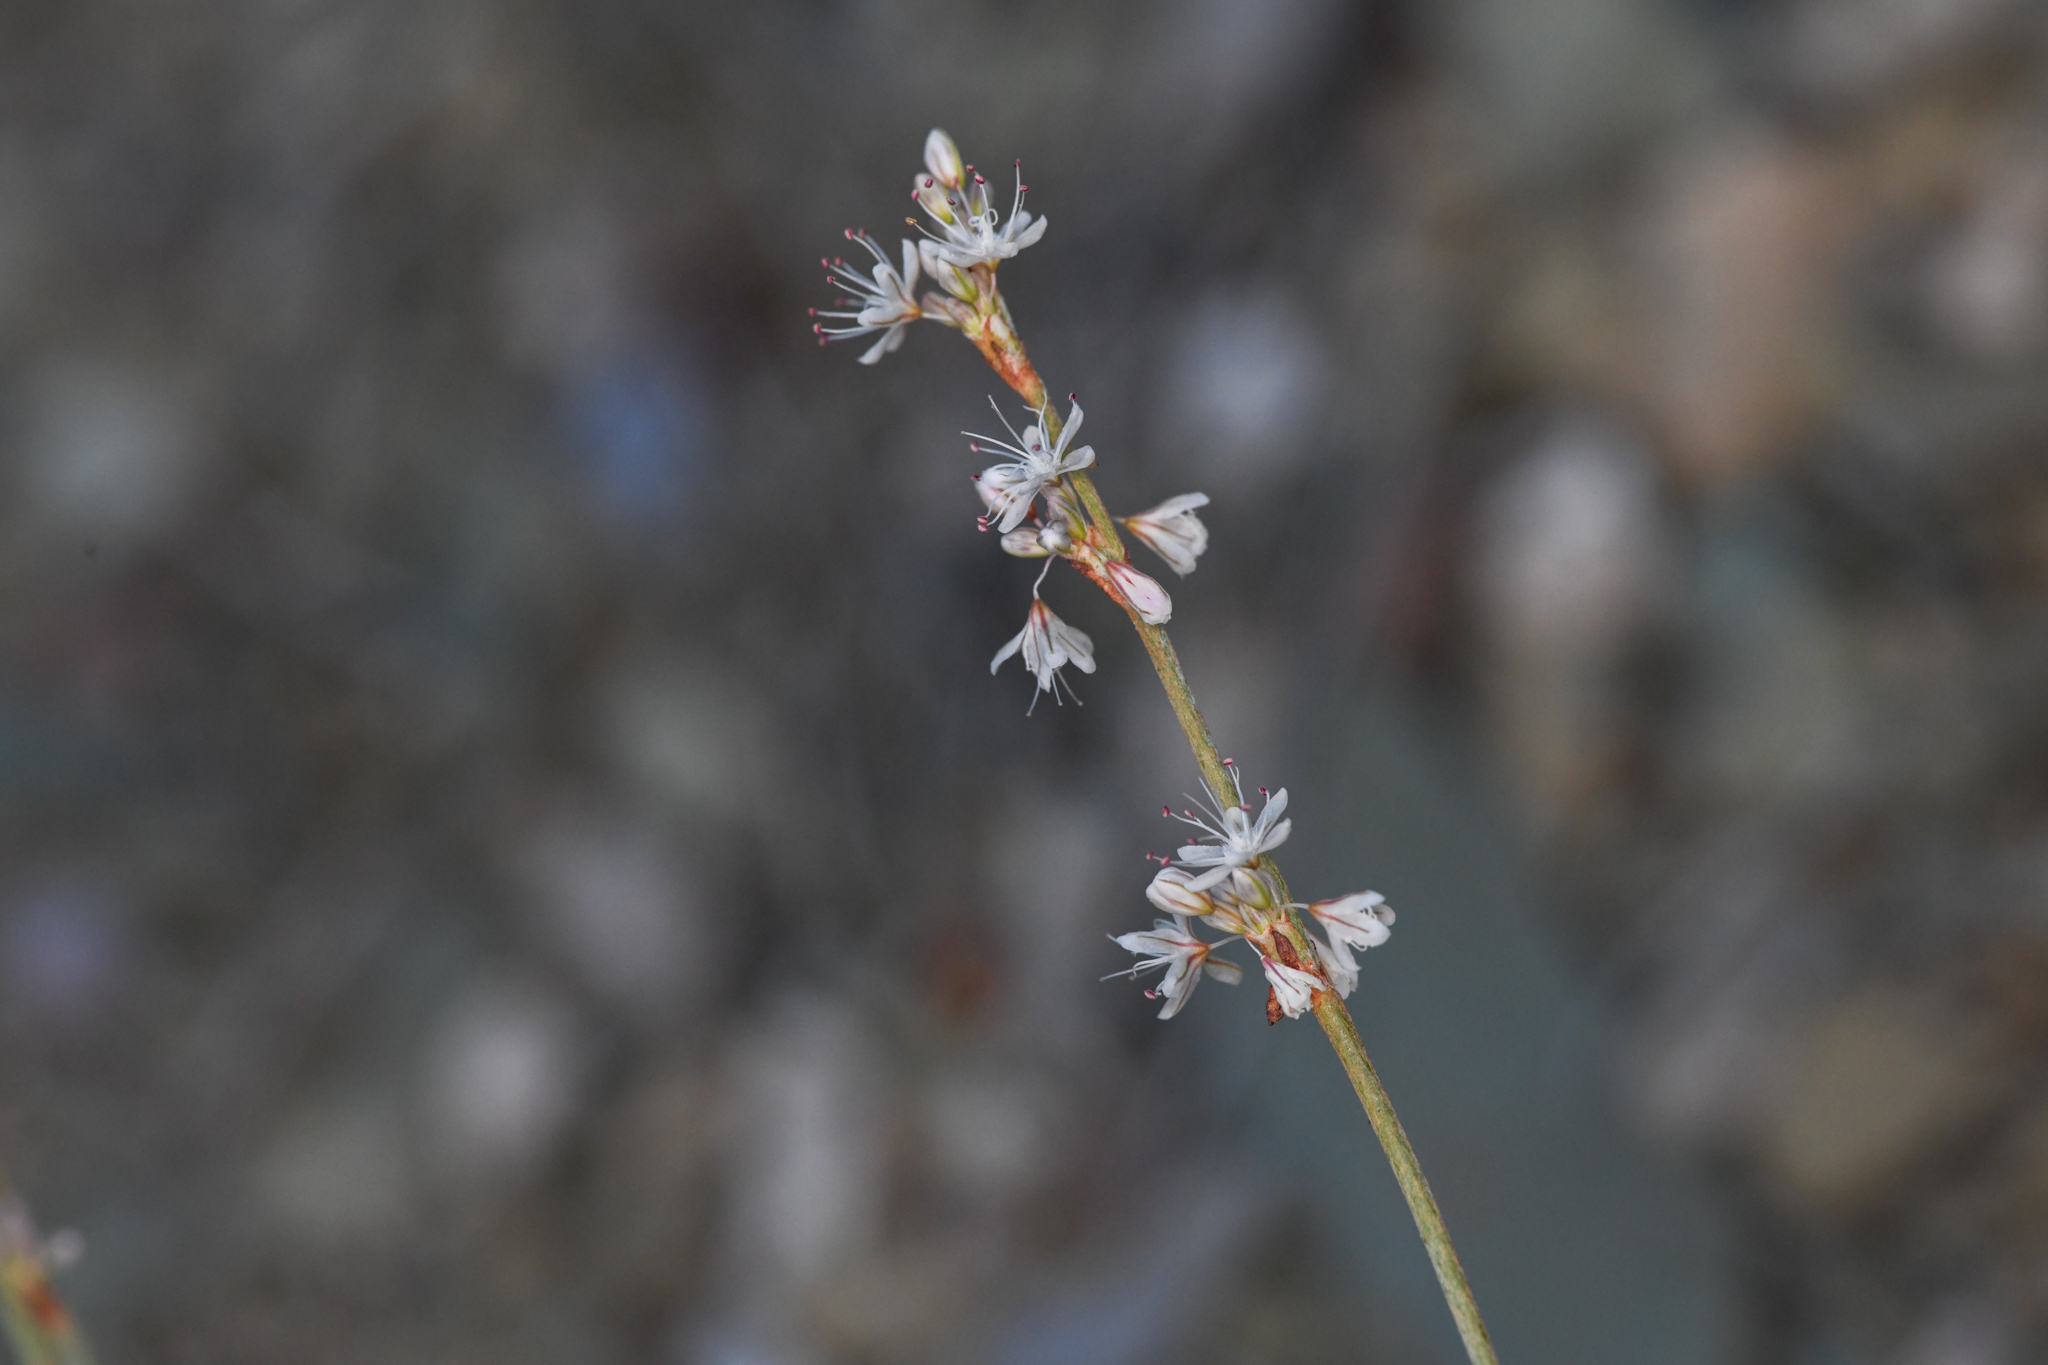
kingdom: Plantae
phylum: Tracheophyta
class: Magnoliopsida
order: Caryophyllales
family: Polygonaceae
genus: Eriogonum
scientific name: Eriogonum panamintense
